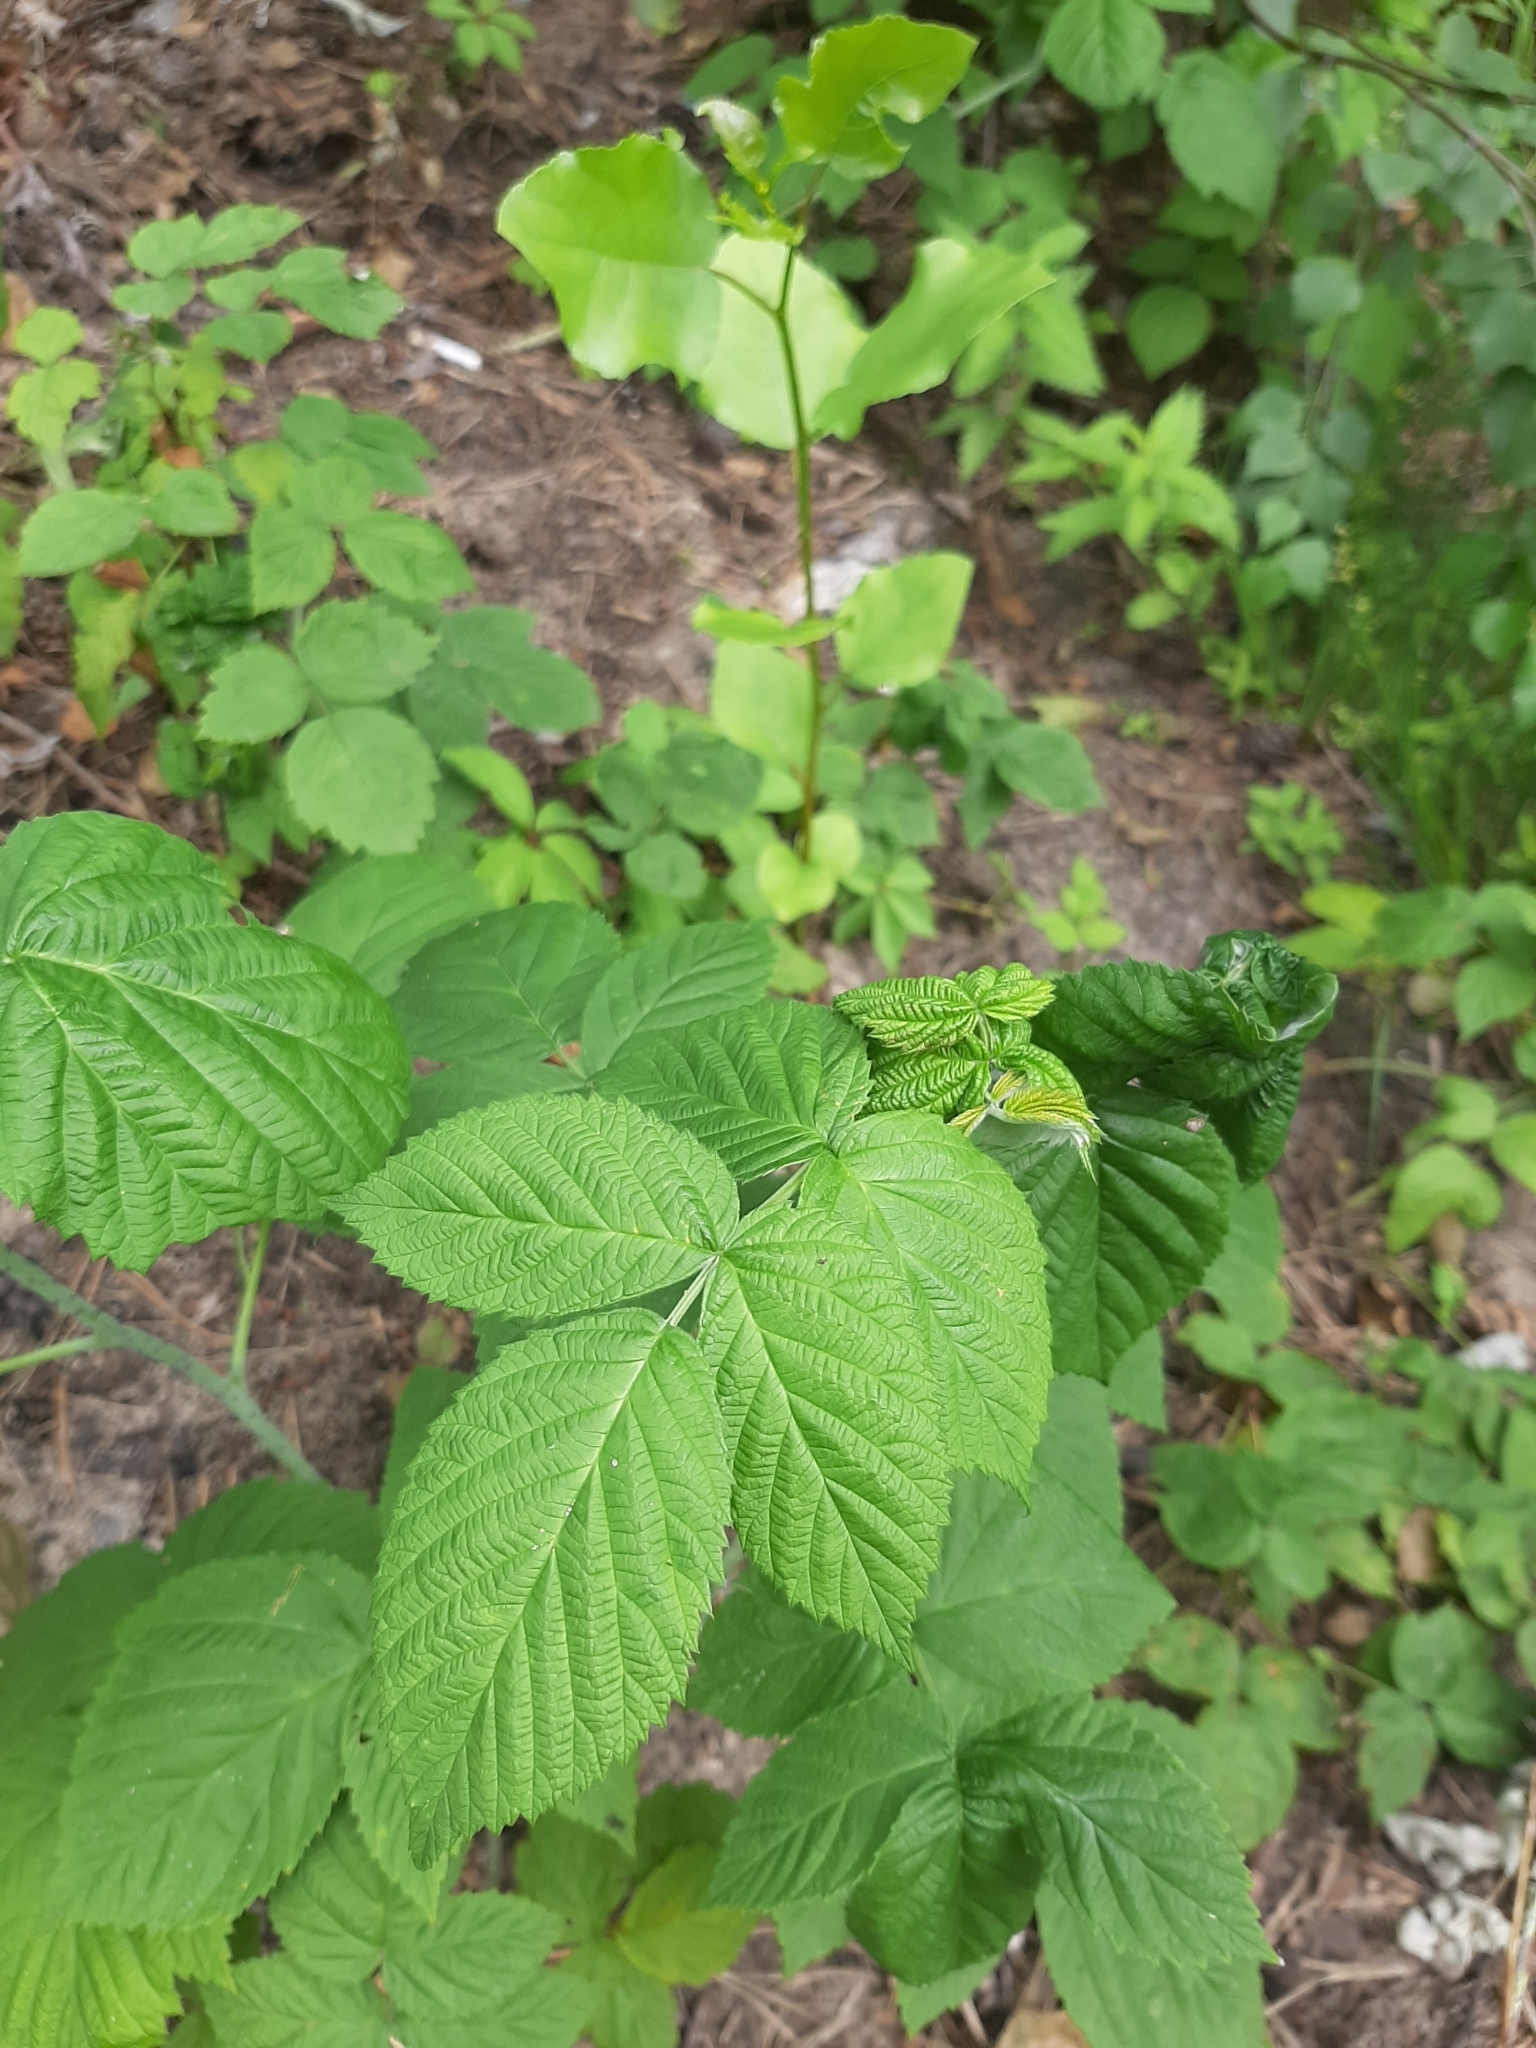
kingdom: Plantae
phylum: Tracheophyta
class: Magnoliopsida
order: Rosales
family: Rosaceae
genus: Rubus
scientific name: Rubus idaeus
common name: Raspberry
